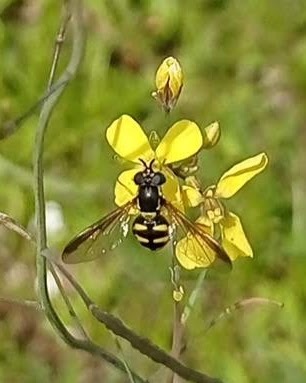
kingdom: Animalia
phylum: Arthropoda
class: Insecta
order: Diptera
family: Syrphidae
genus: Chrysotoxum
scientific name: Chrysotoxum intermedium
